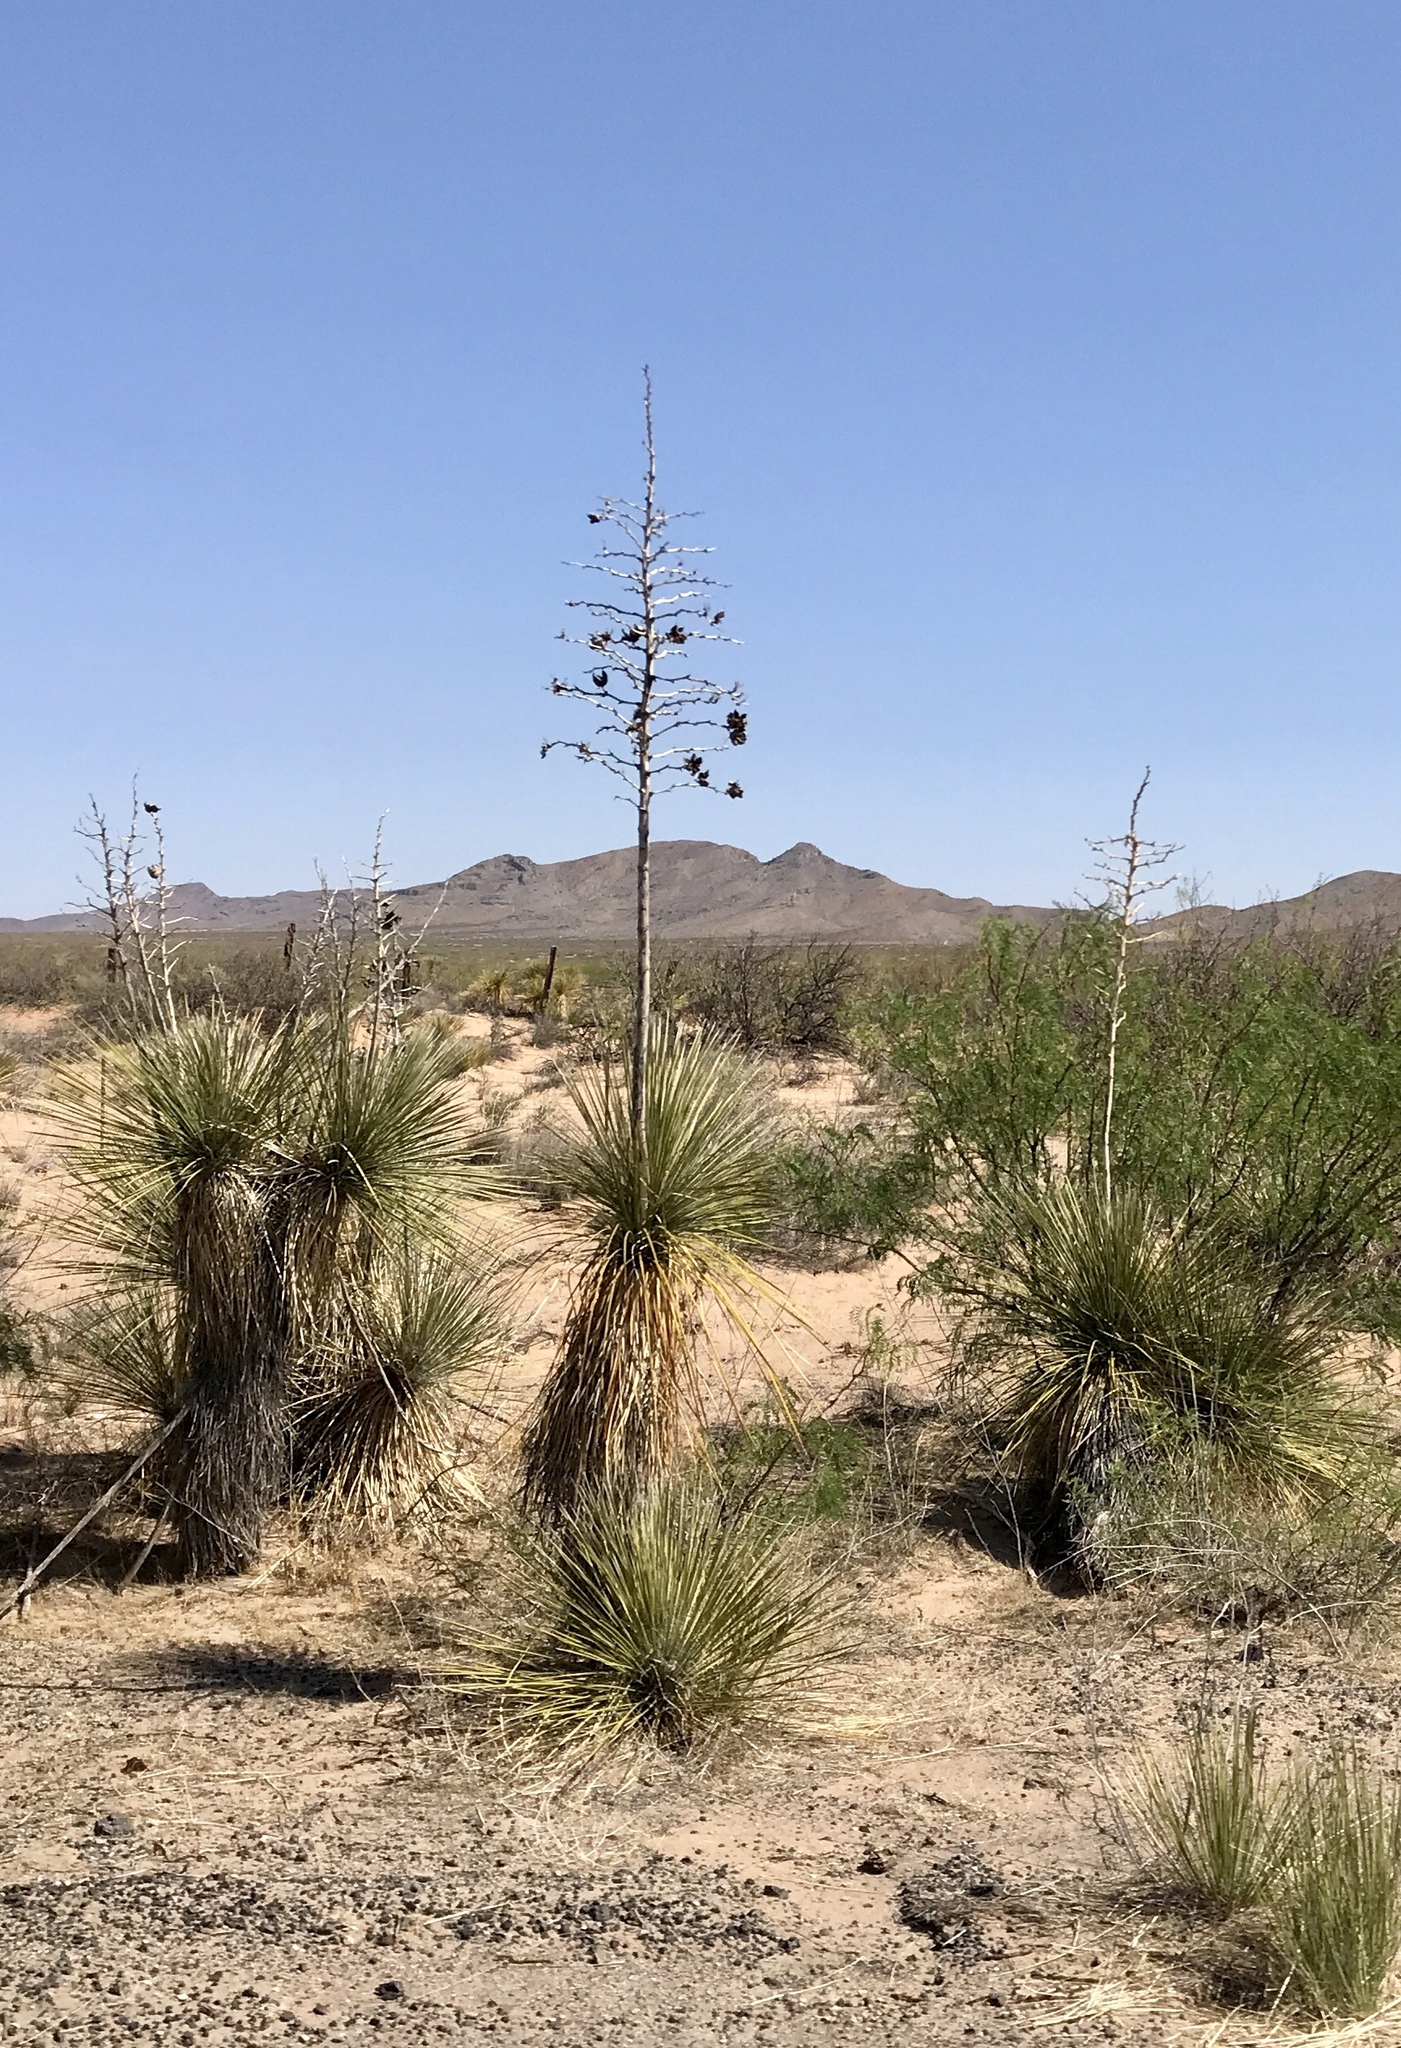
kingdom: Plantae
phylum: Tracheophyta
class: Liliopsida
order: Asparagales
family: Asparagaceae
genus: Yucca
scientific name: Yucca elata
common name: Palmella
